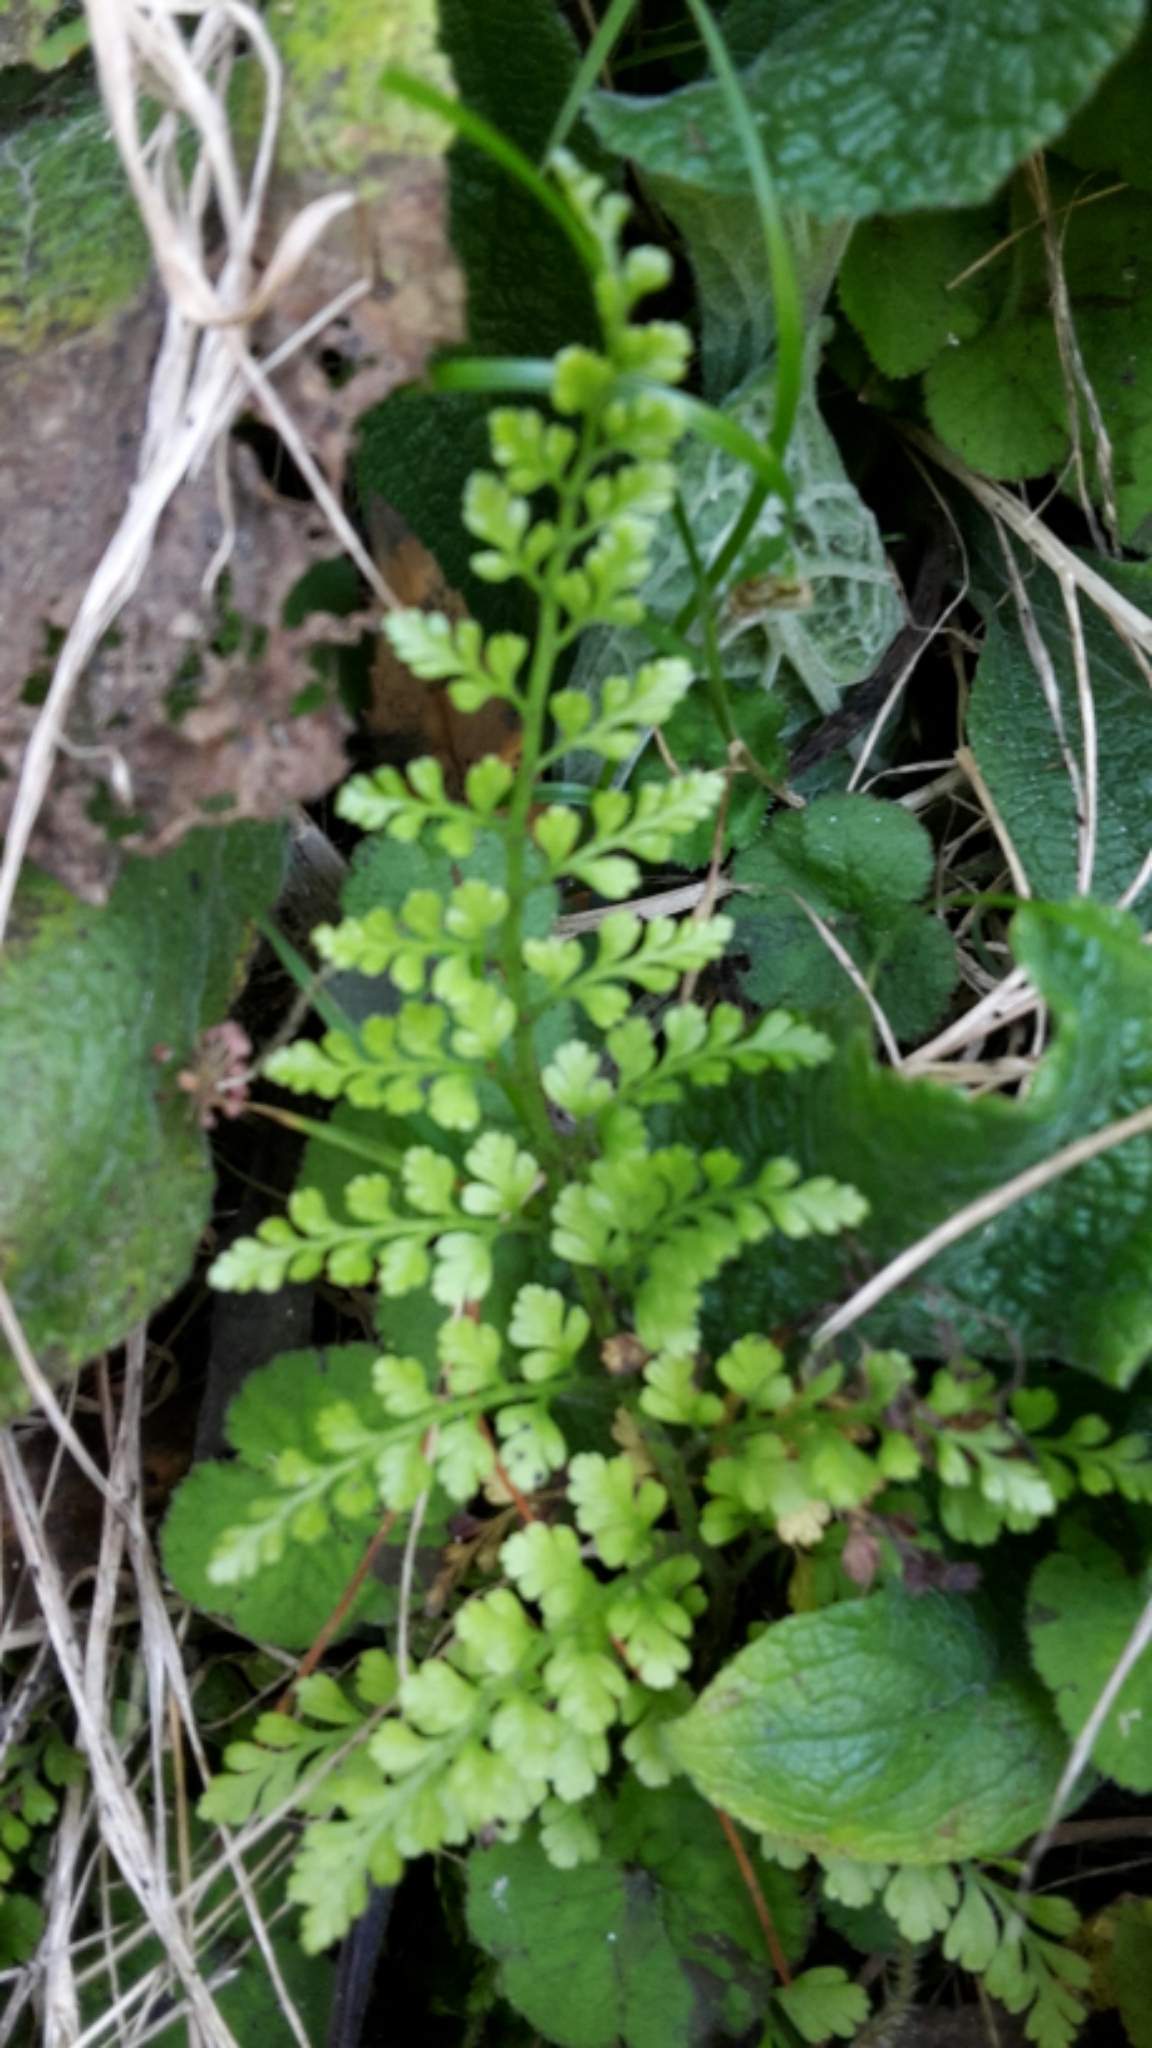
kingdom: Plantae
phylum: Tracheophyta
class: Polypodiopsida
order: Polypodiales
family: Aspleniaceae
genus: Asplenium
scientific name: Asplenium hookerianum
